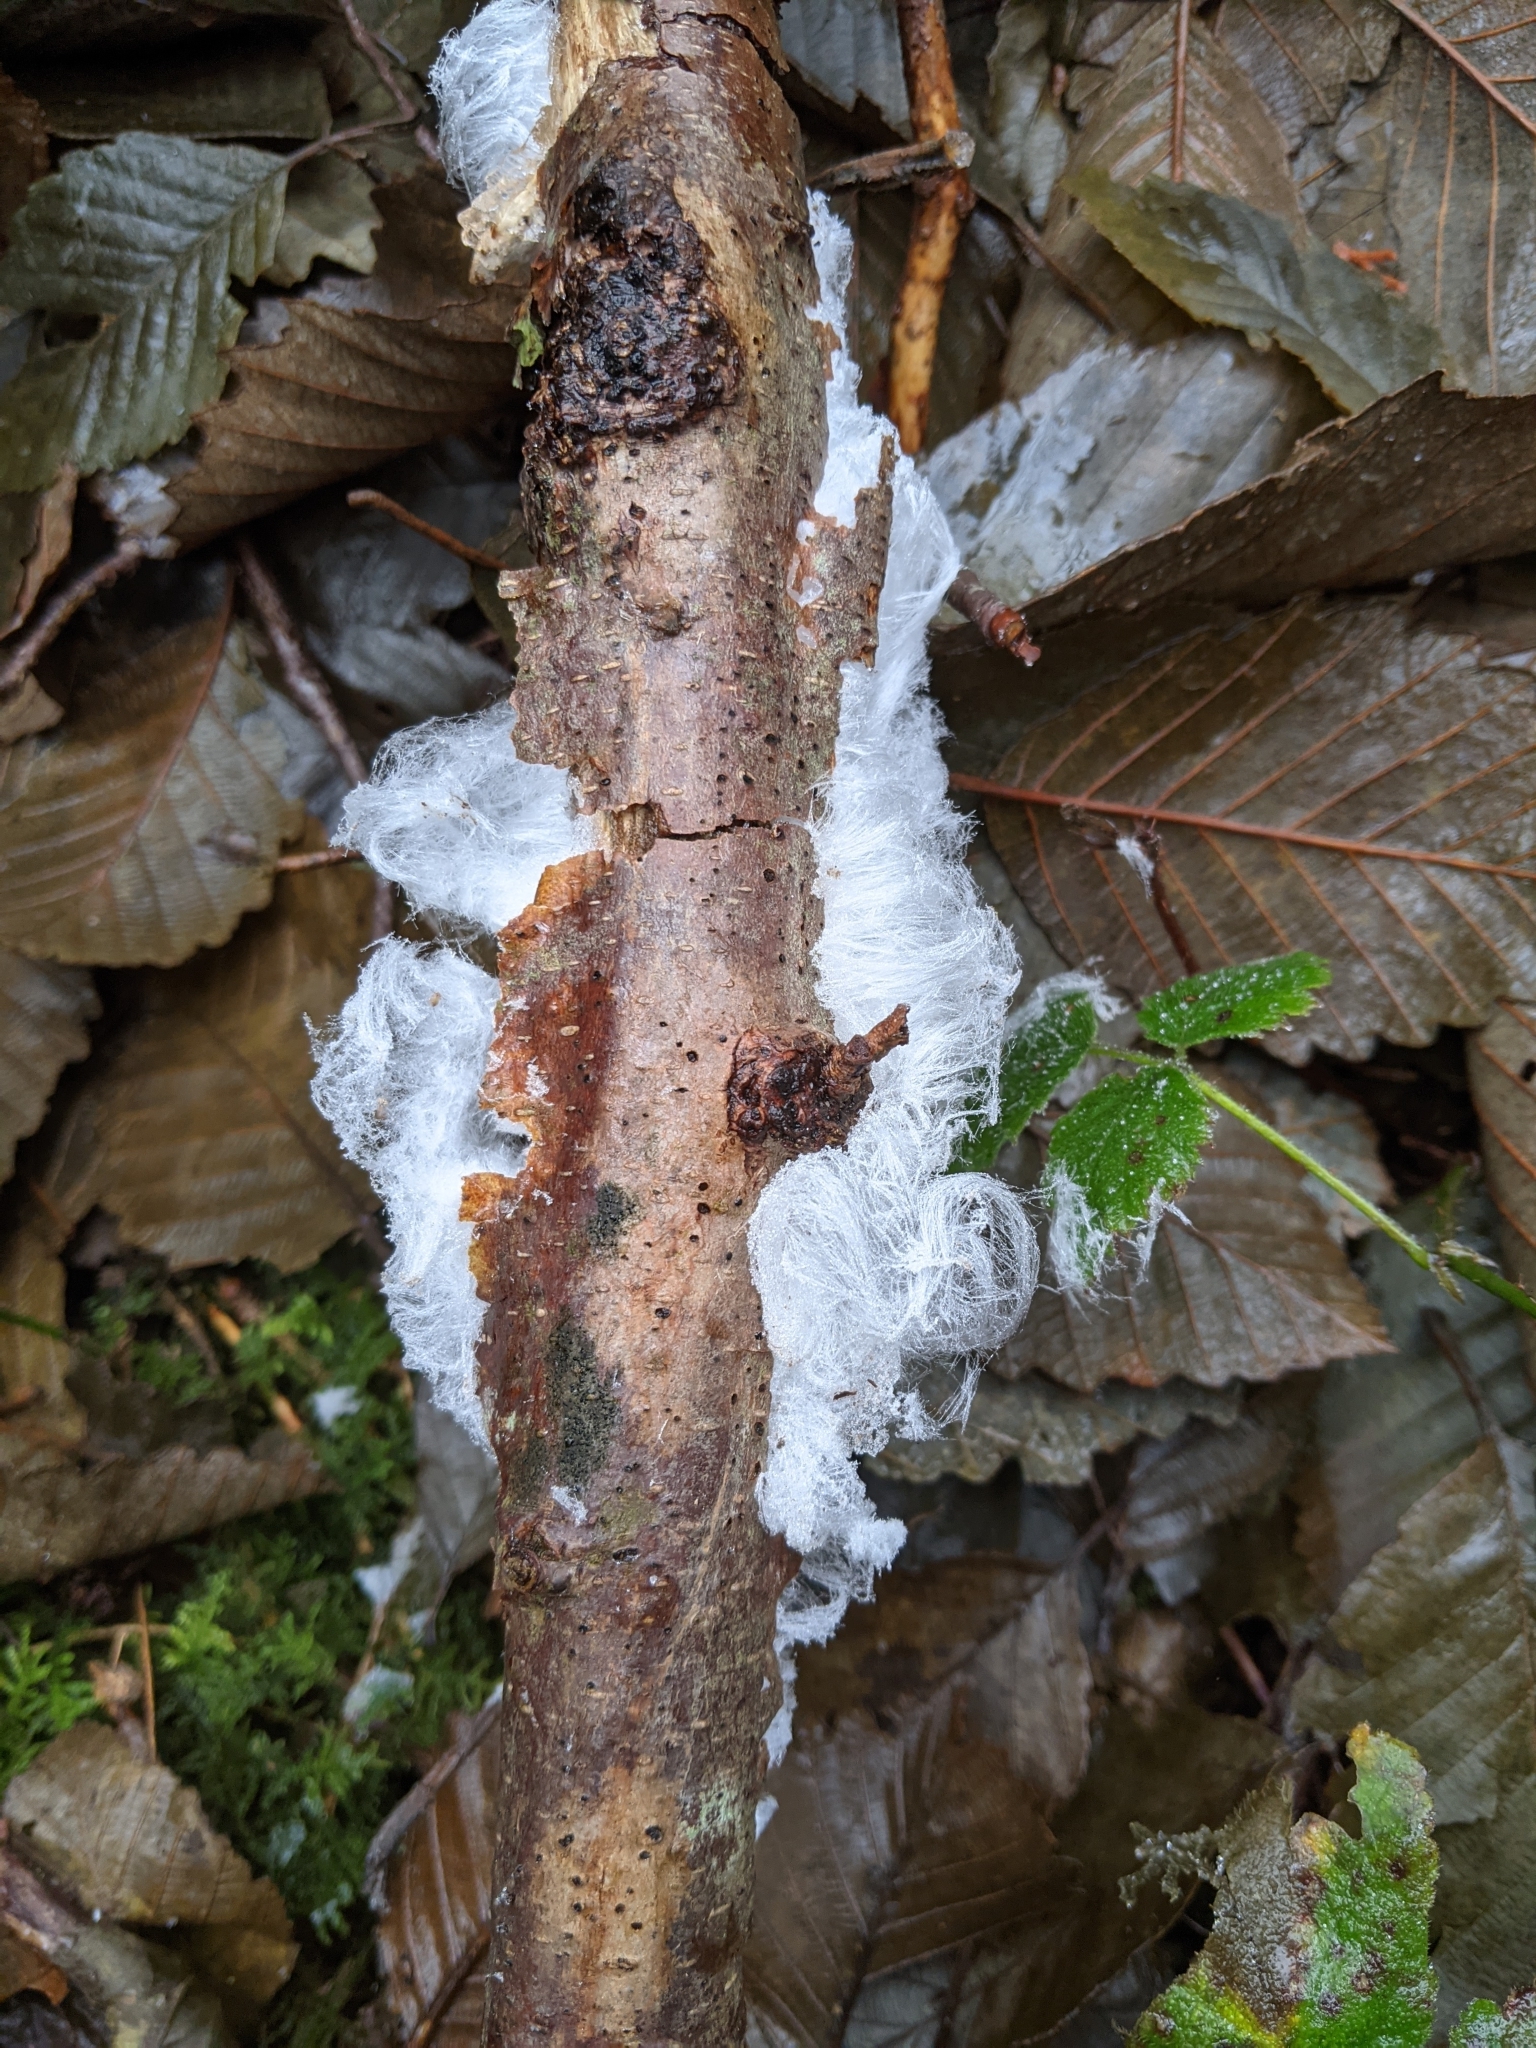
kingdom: Fungi
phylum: Basidiomycota
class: Agaricomycetes
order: Auriculariales
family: Auriculariaceae
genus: Exidiopsis
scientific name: Exidiopsis effusa
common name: Hair ice crust
